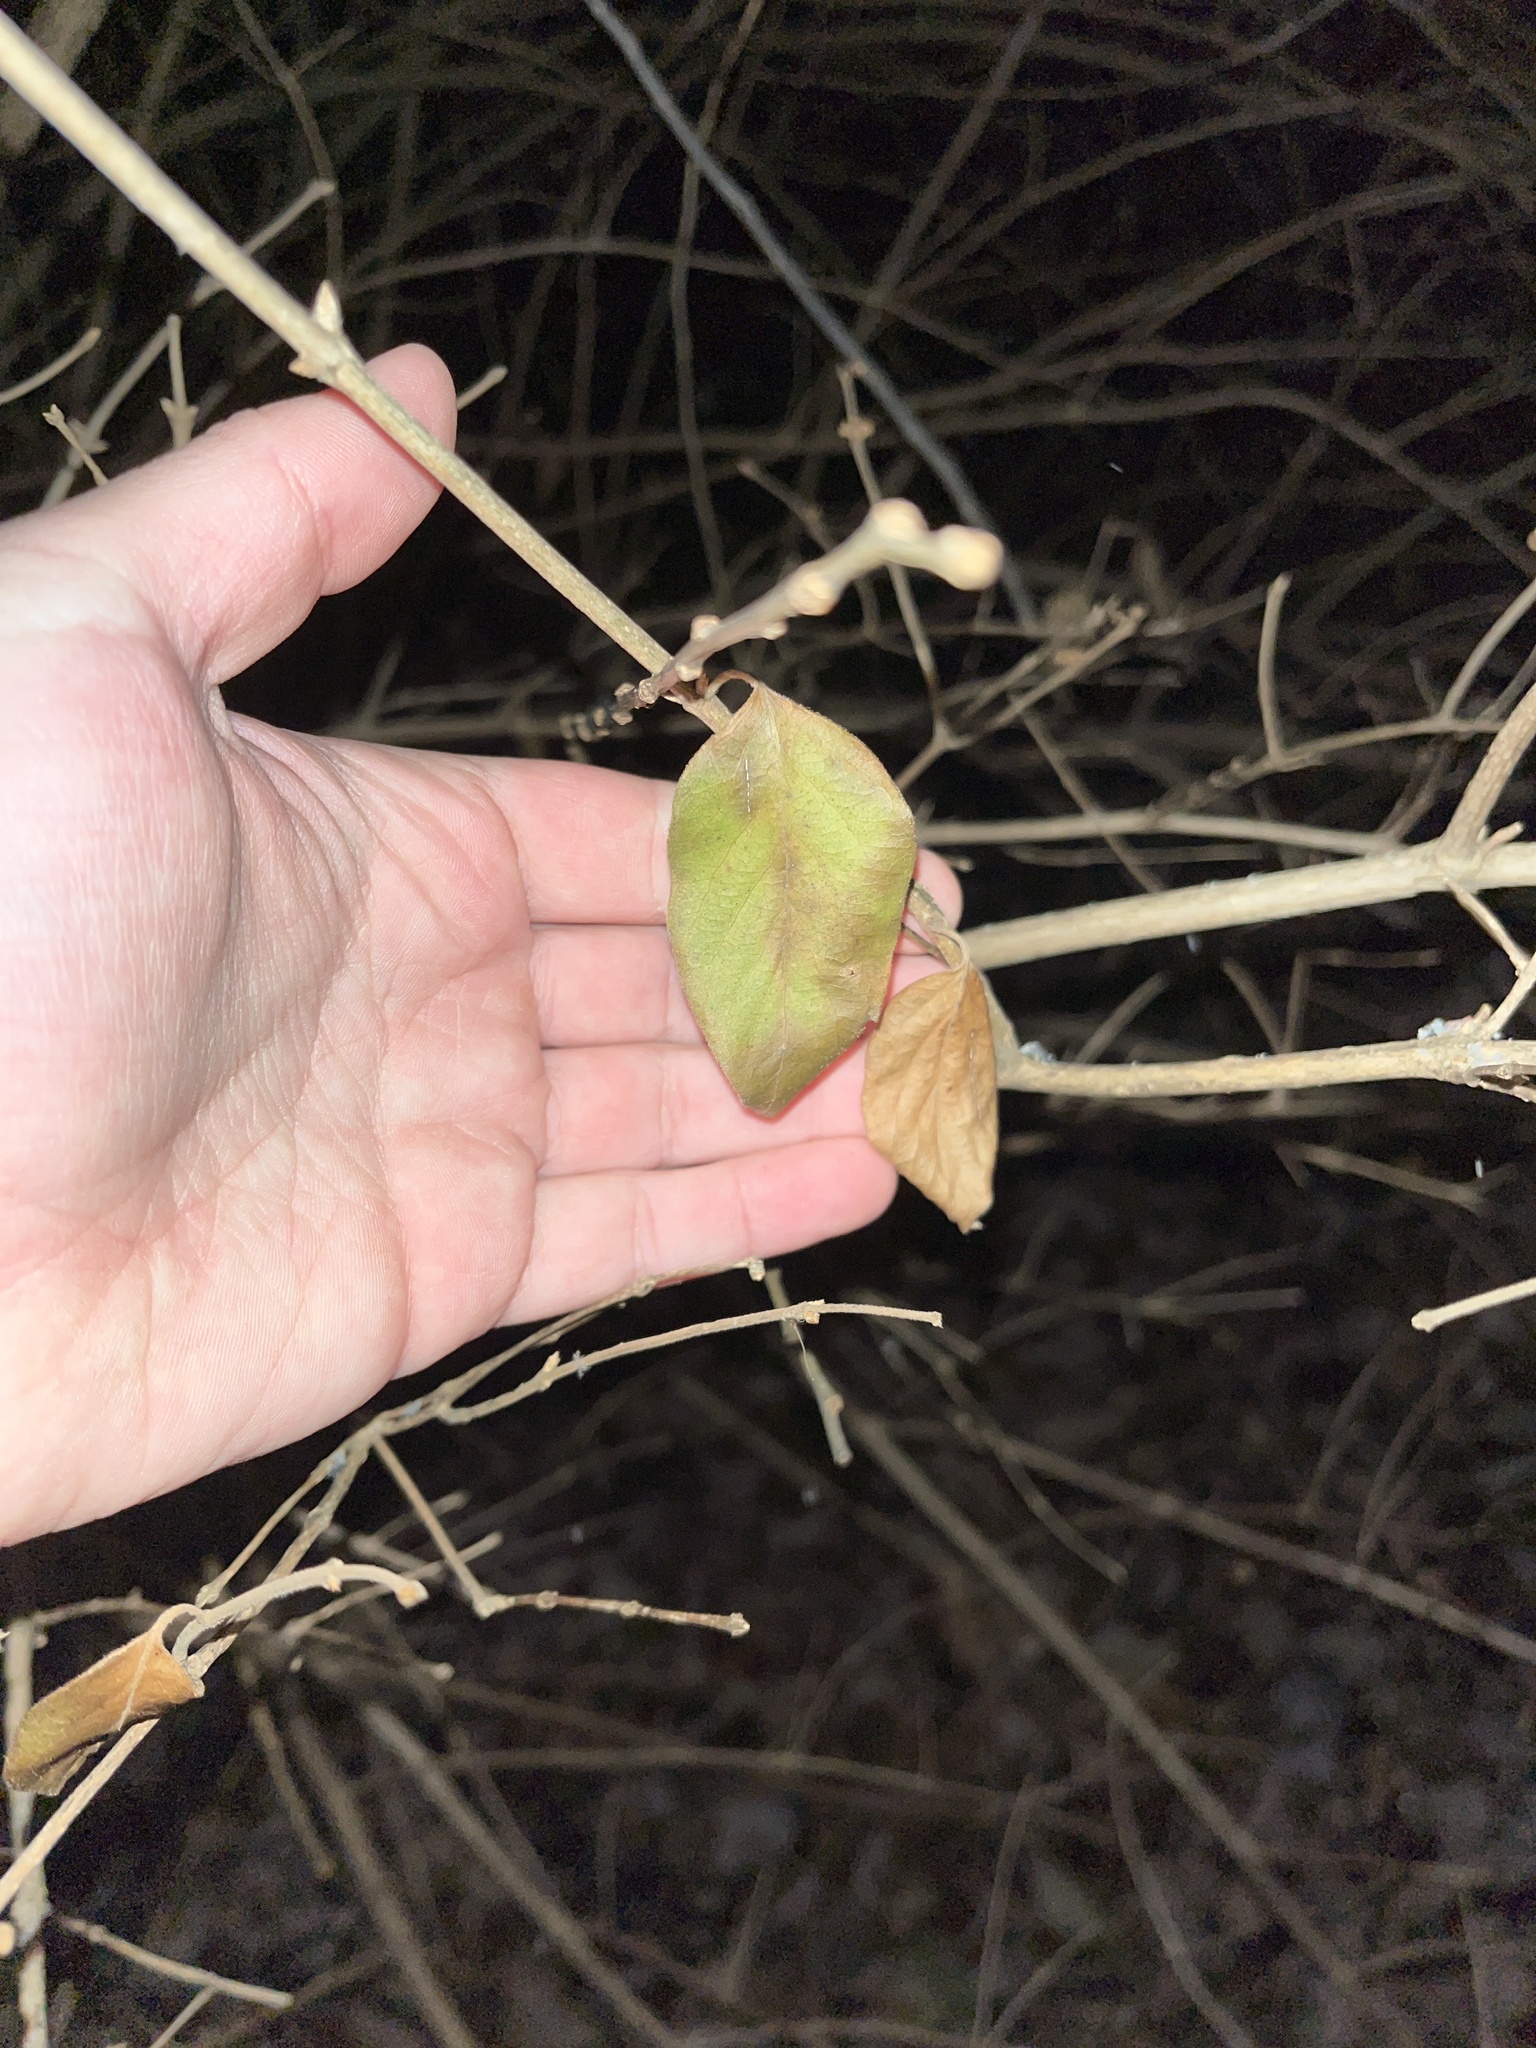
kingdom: Plantae
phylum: Tracheophyta
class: Magnoliopsida
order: Dipsacales
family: Caprifoliaceae
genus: Lonicera
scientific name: Lonicera maackii
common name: Amur honeysuckle
